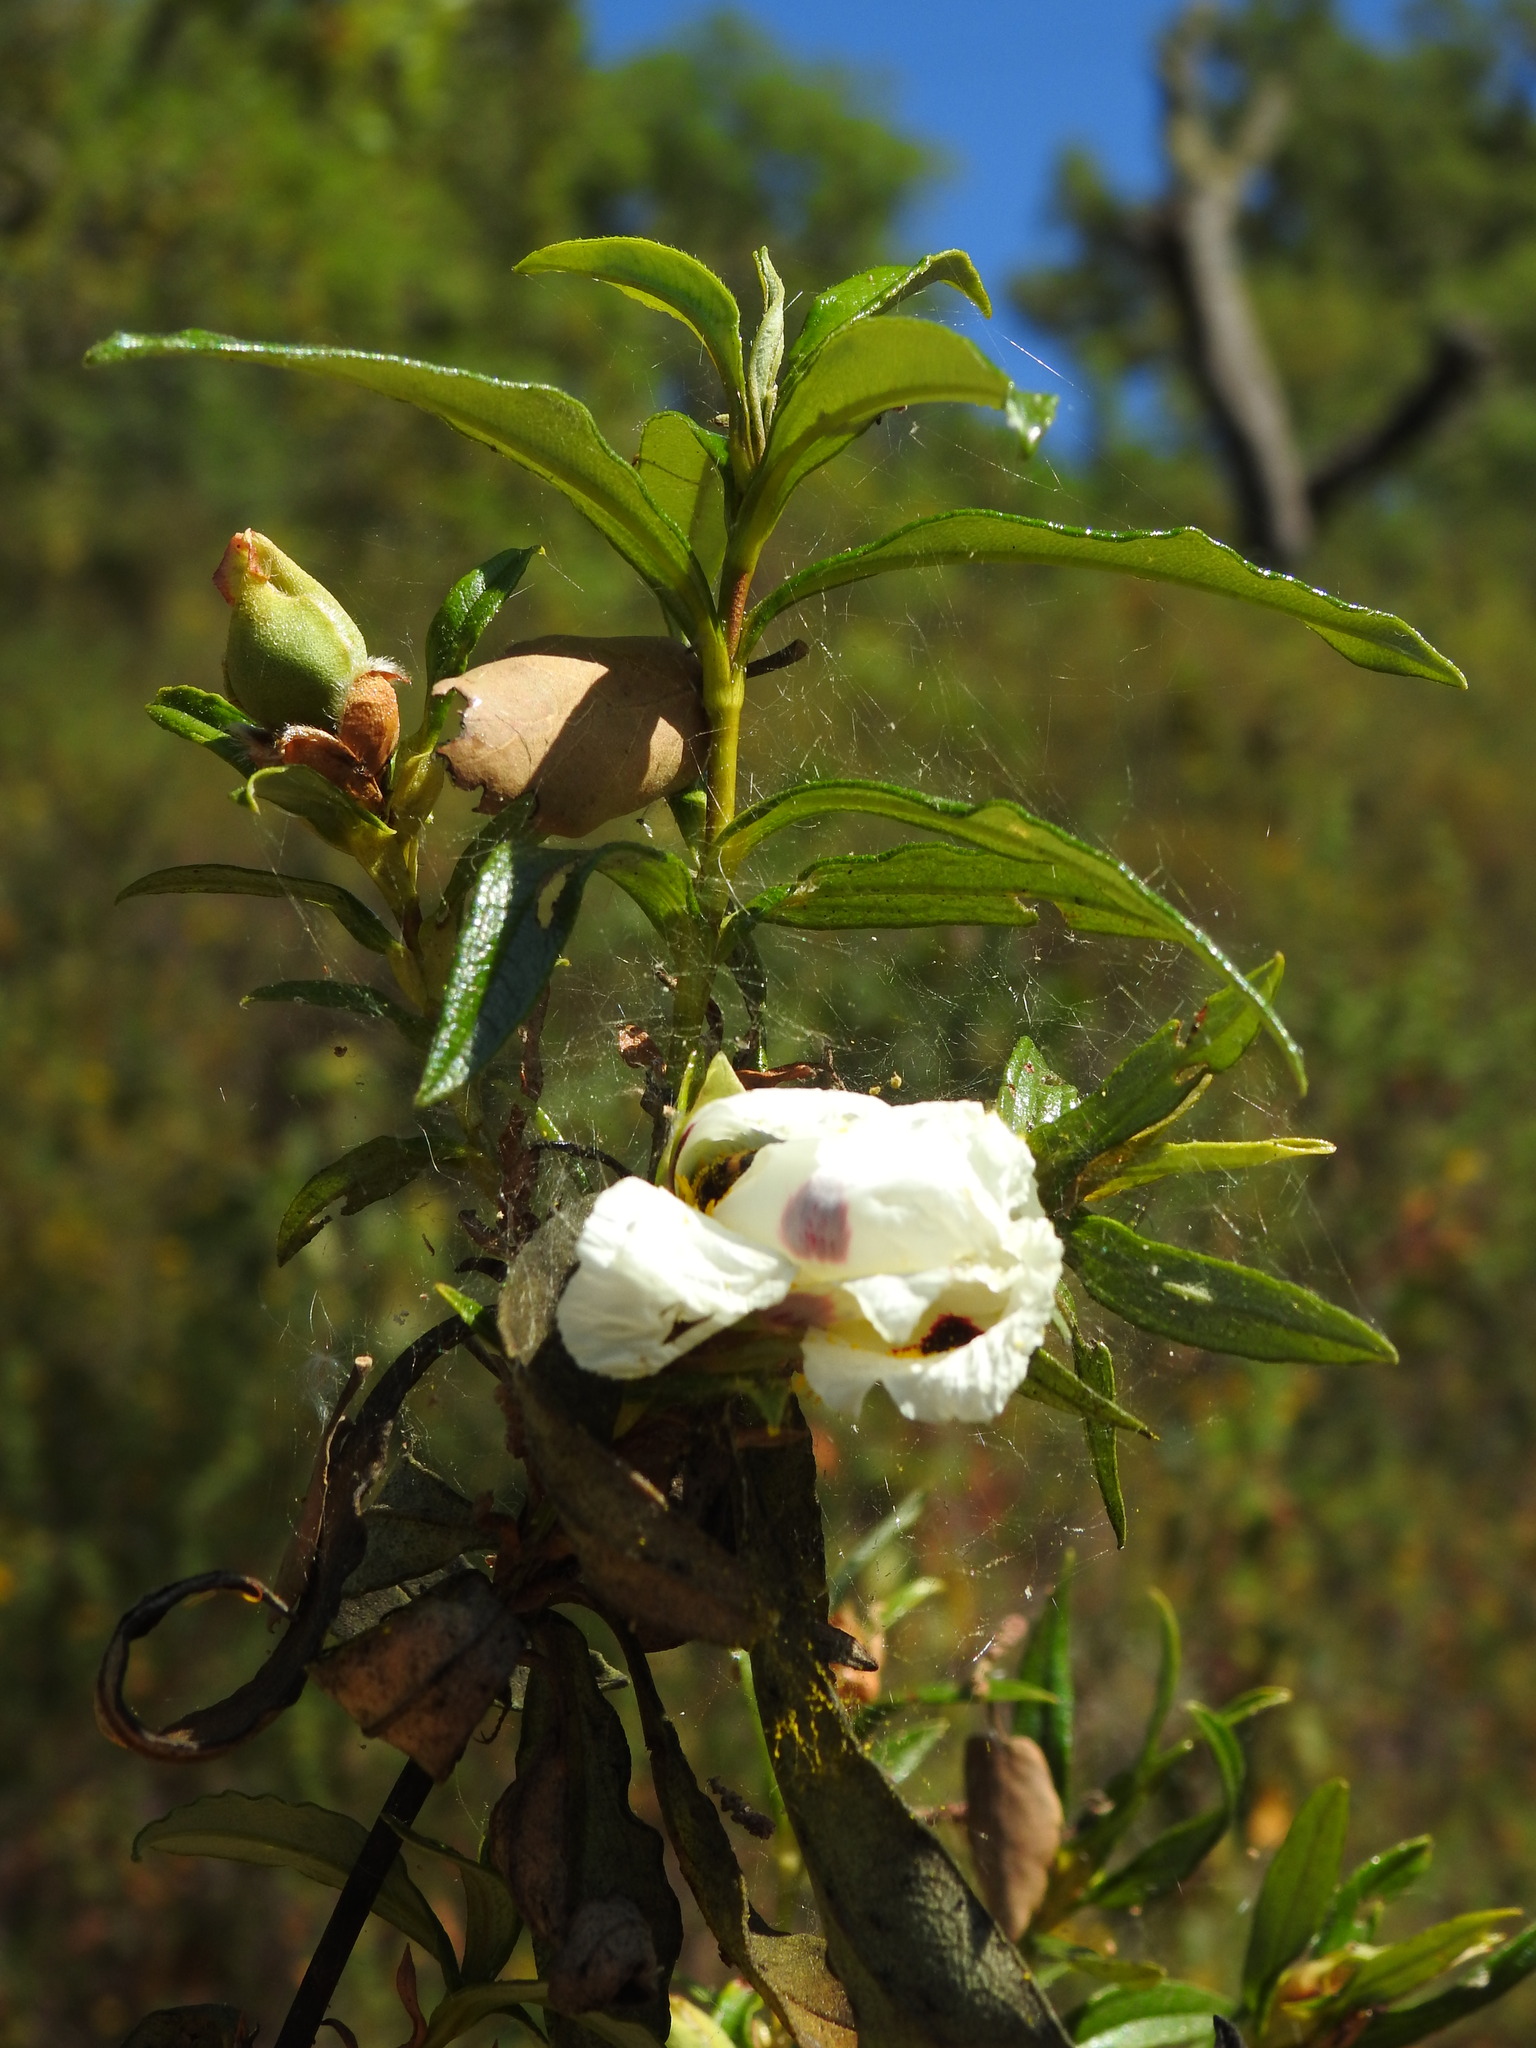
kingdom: Plantae
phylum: Tracheophyta
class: Magnoliopsida
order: Malvales
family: Cistaceae
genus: Cistus
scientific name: Cistus ladanifer
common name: Common gum cistus
